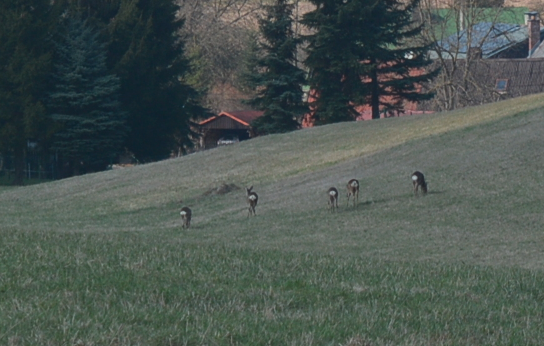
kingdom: Animalia
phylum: Chordata
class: Mammalia
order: Artiodactyla
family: Cervidae
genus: Capreolus
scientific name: Capreolus capreolus
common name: Western roe deer
